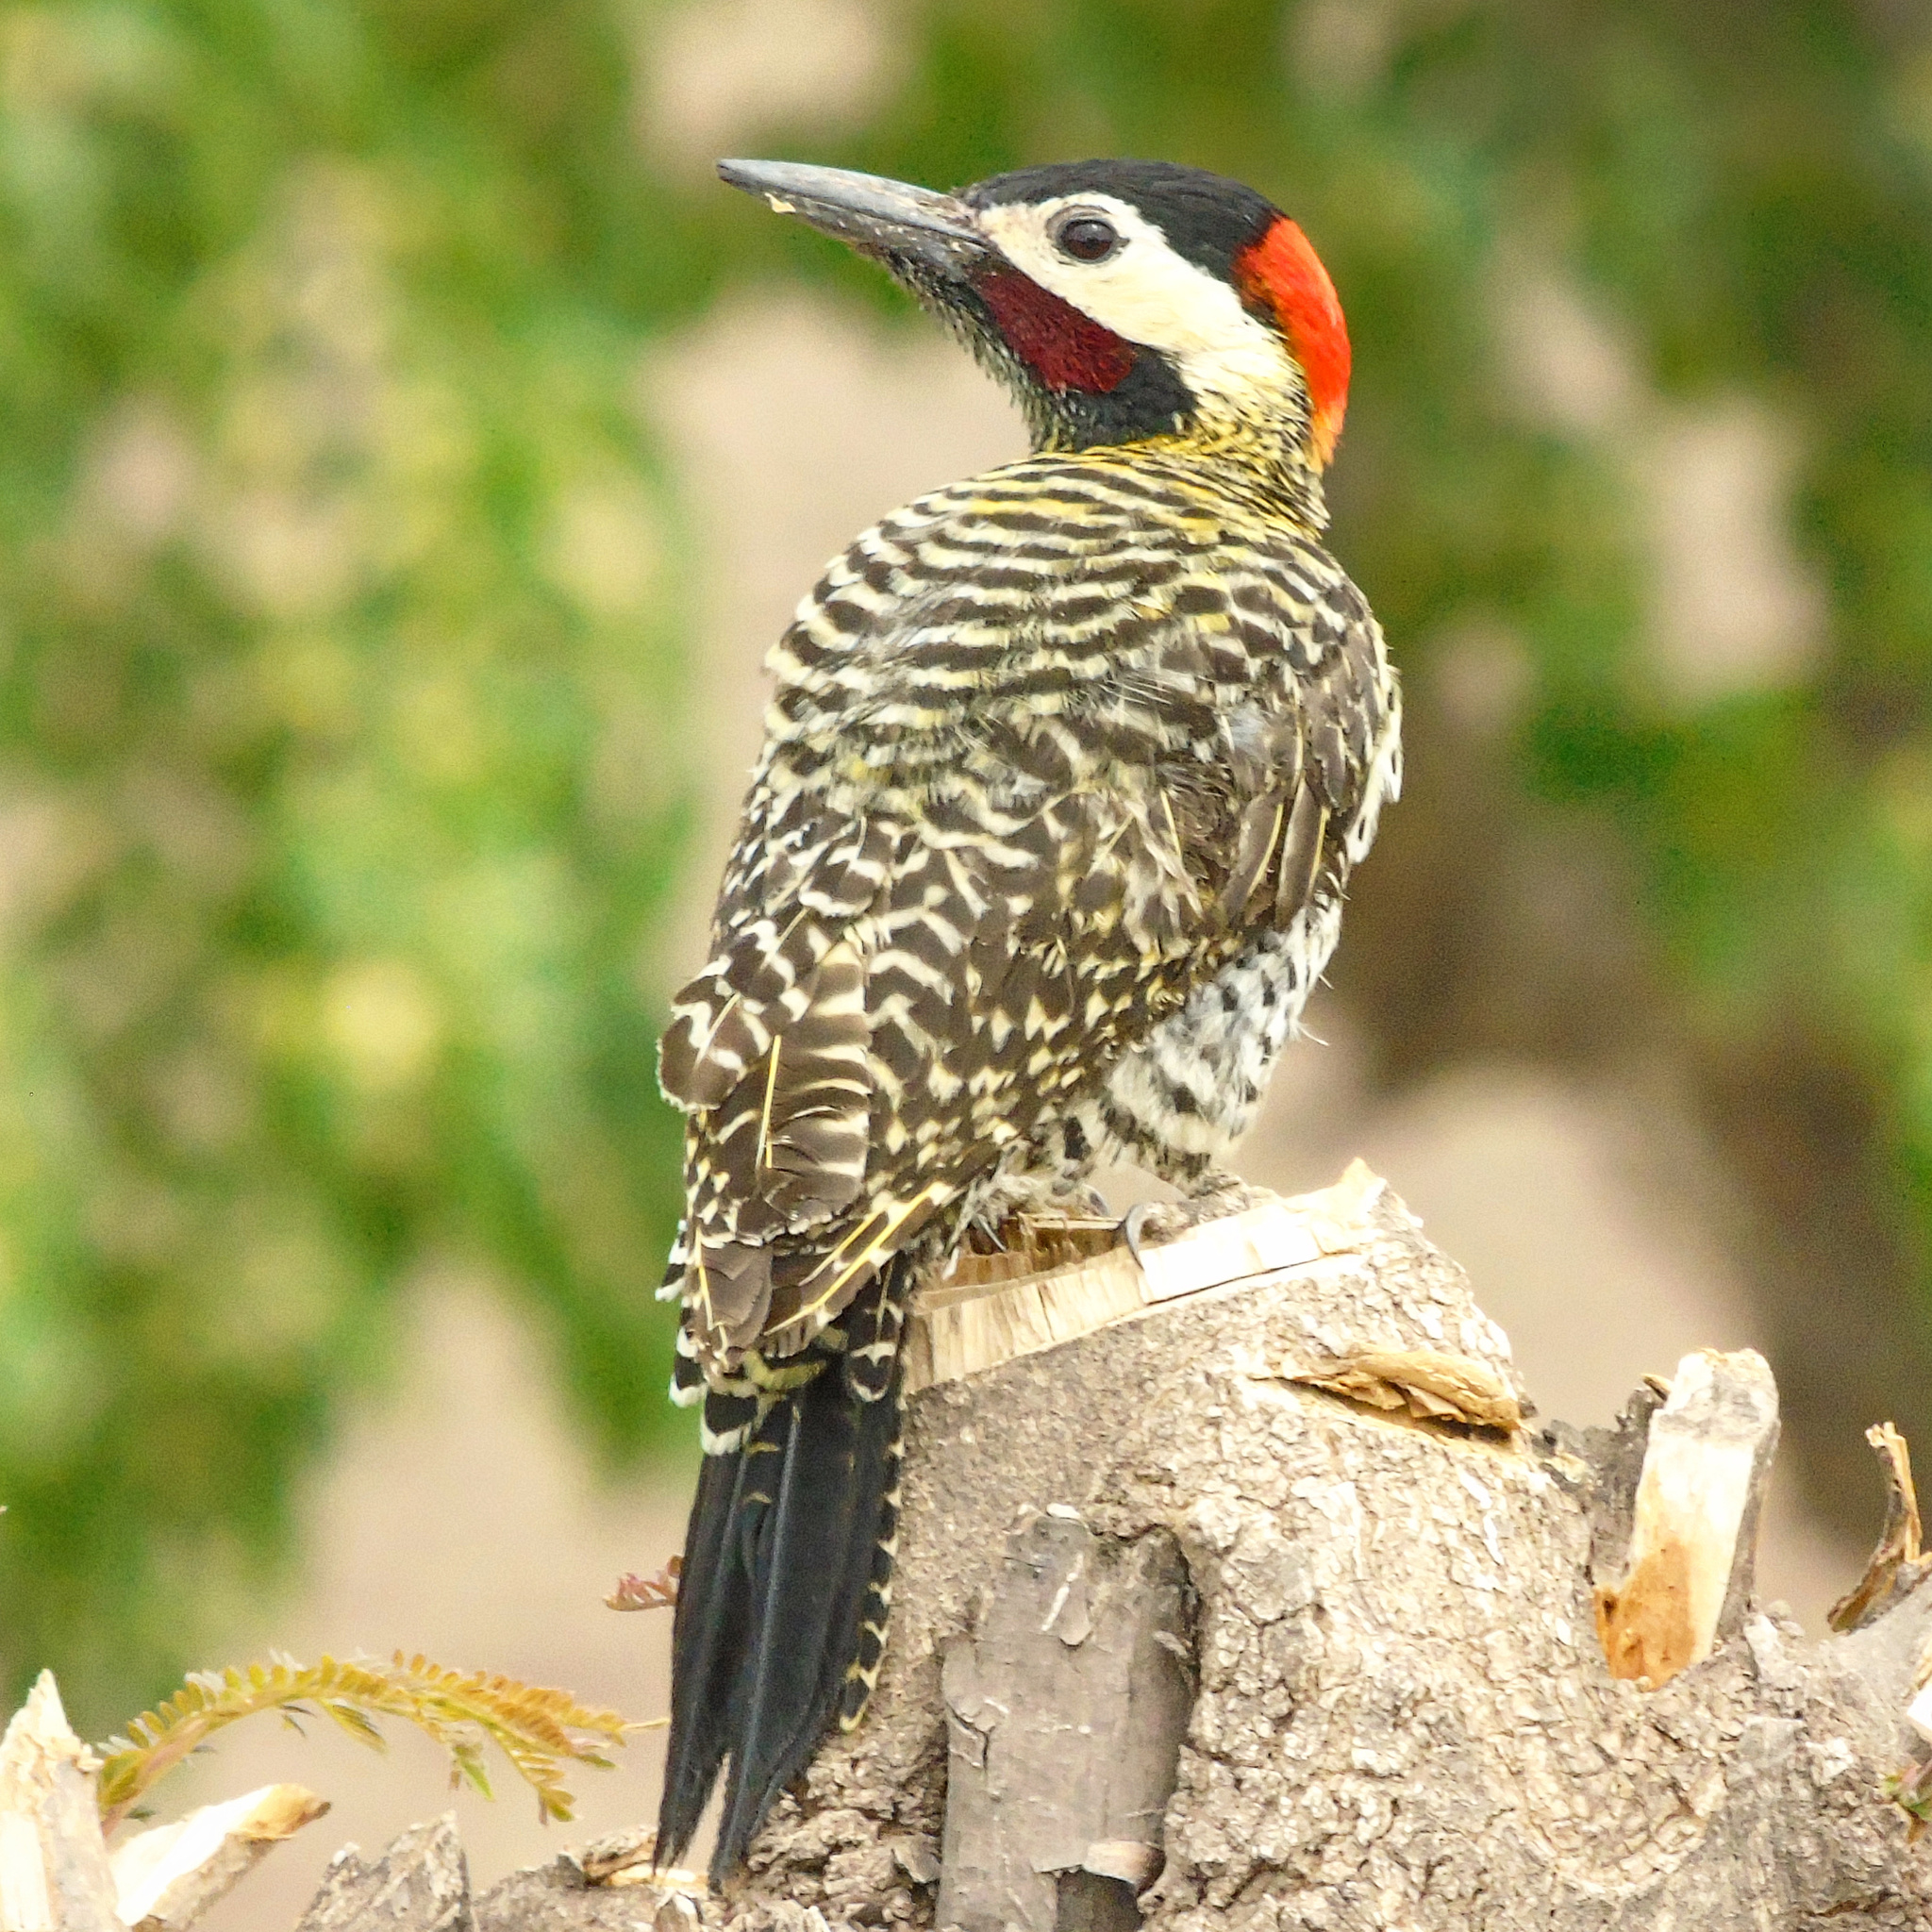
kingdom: Animalia
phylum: Chordata
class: Aves
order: Piciformes
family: Picidae
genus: Colaptes
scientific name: Colaptes melanochloros
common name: Green-barred woodpecker
